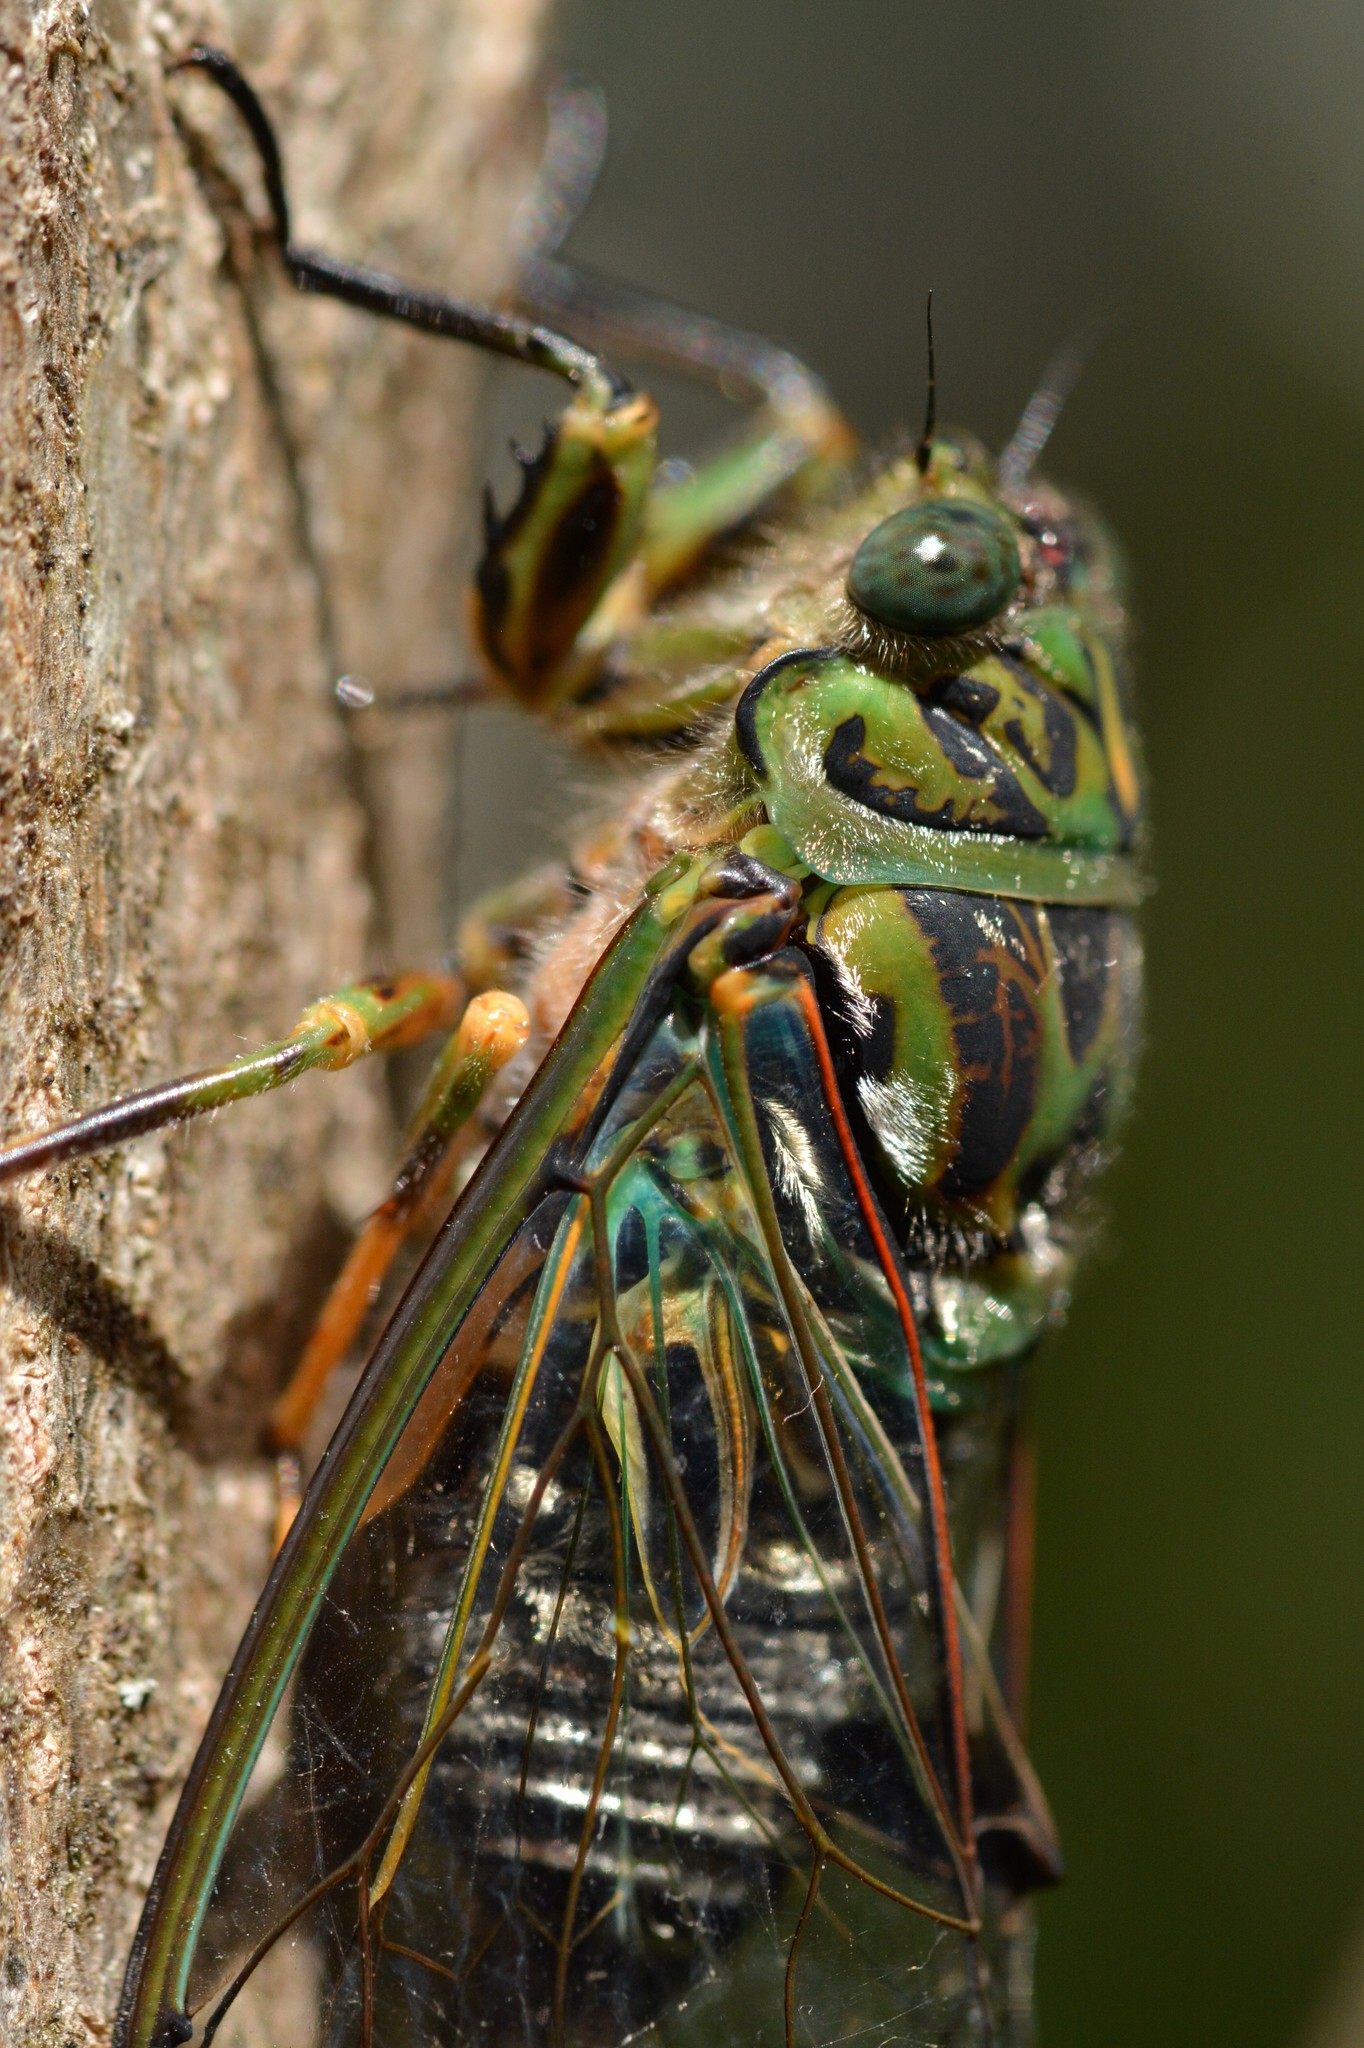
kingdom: Animalia
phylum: Arthropoda
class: Insecta
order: Hemiptera
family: Cicadidae
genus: Amphipsalta
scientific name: Amphipsalta zelandica
